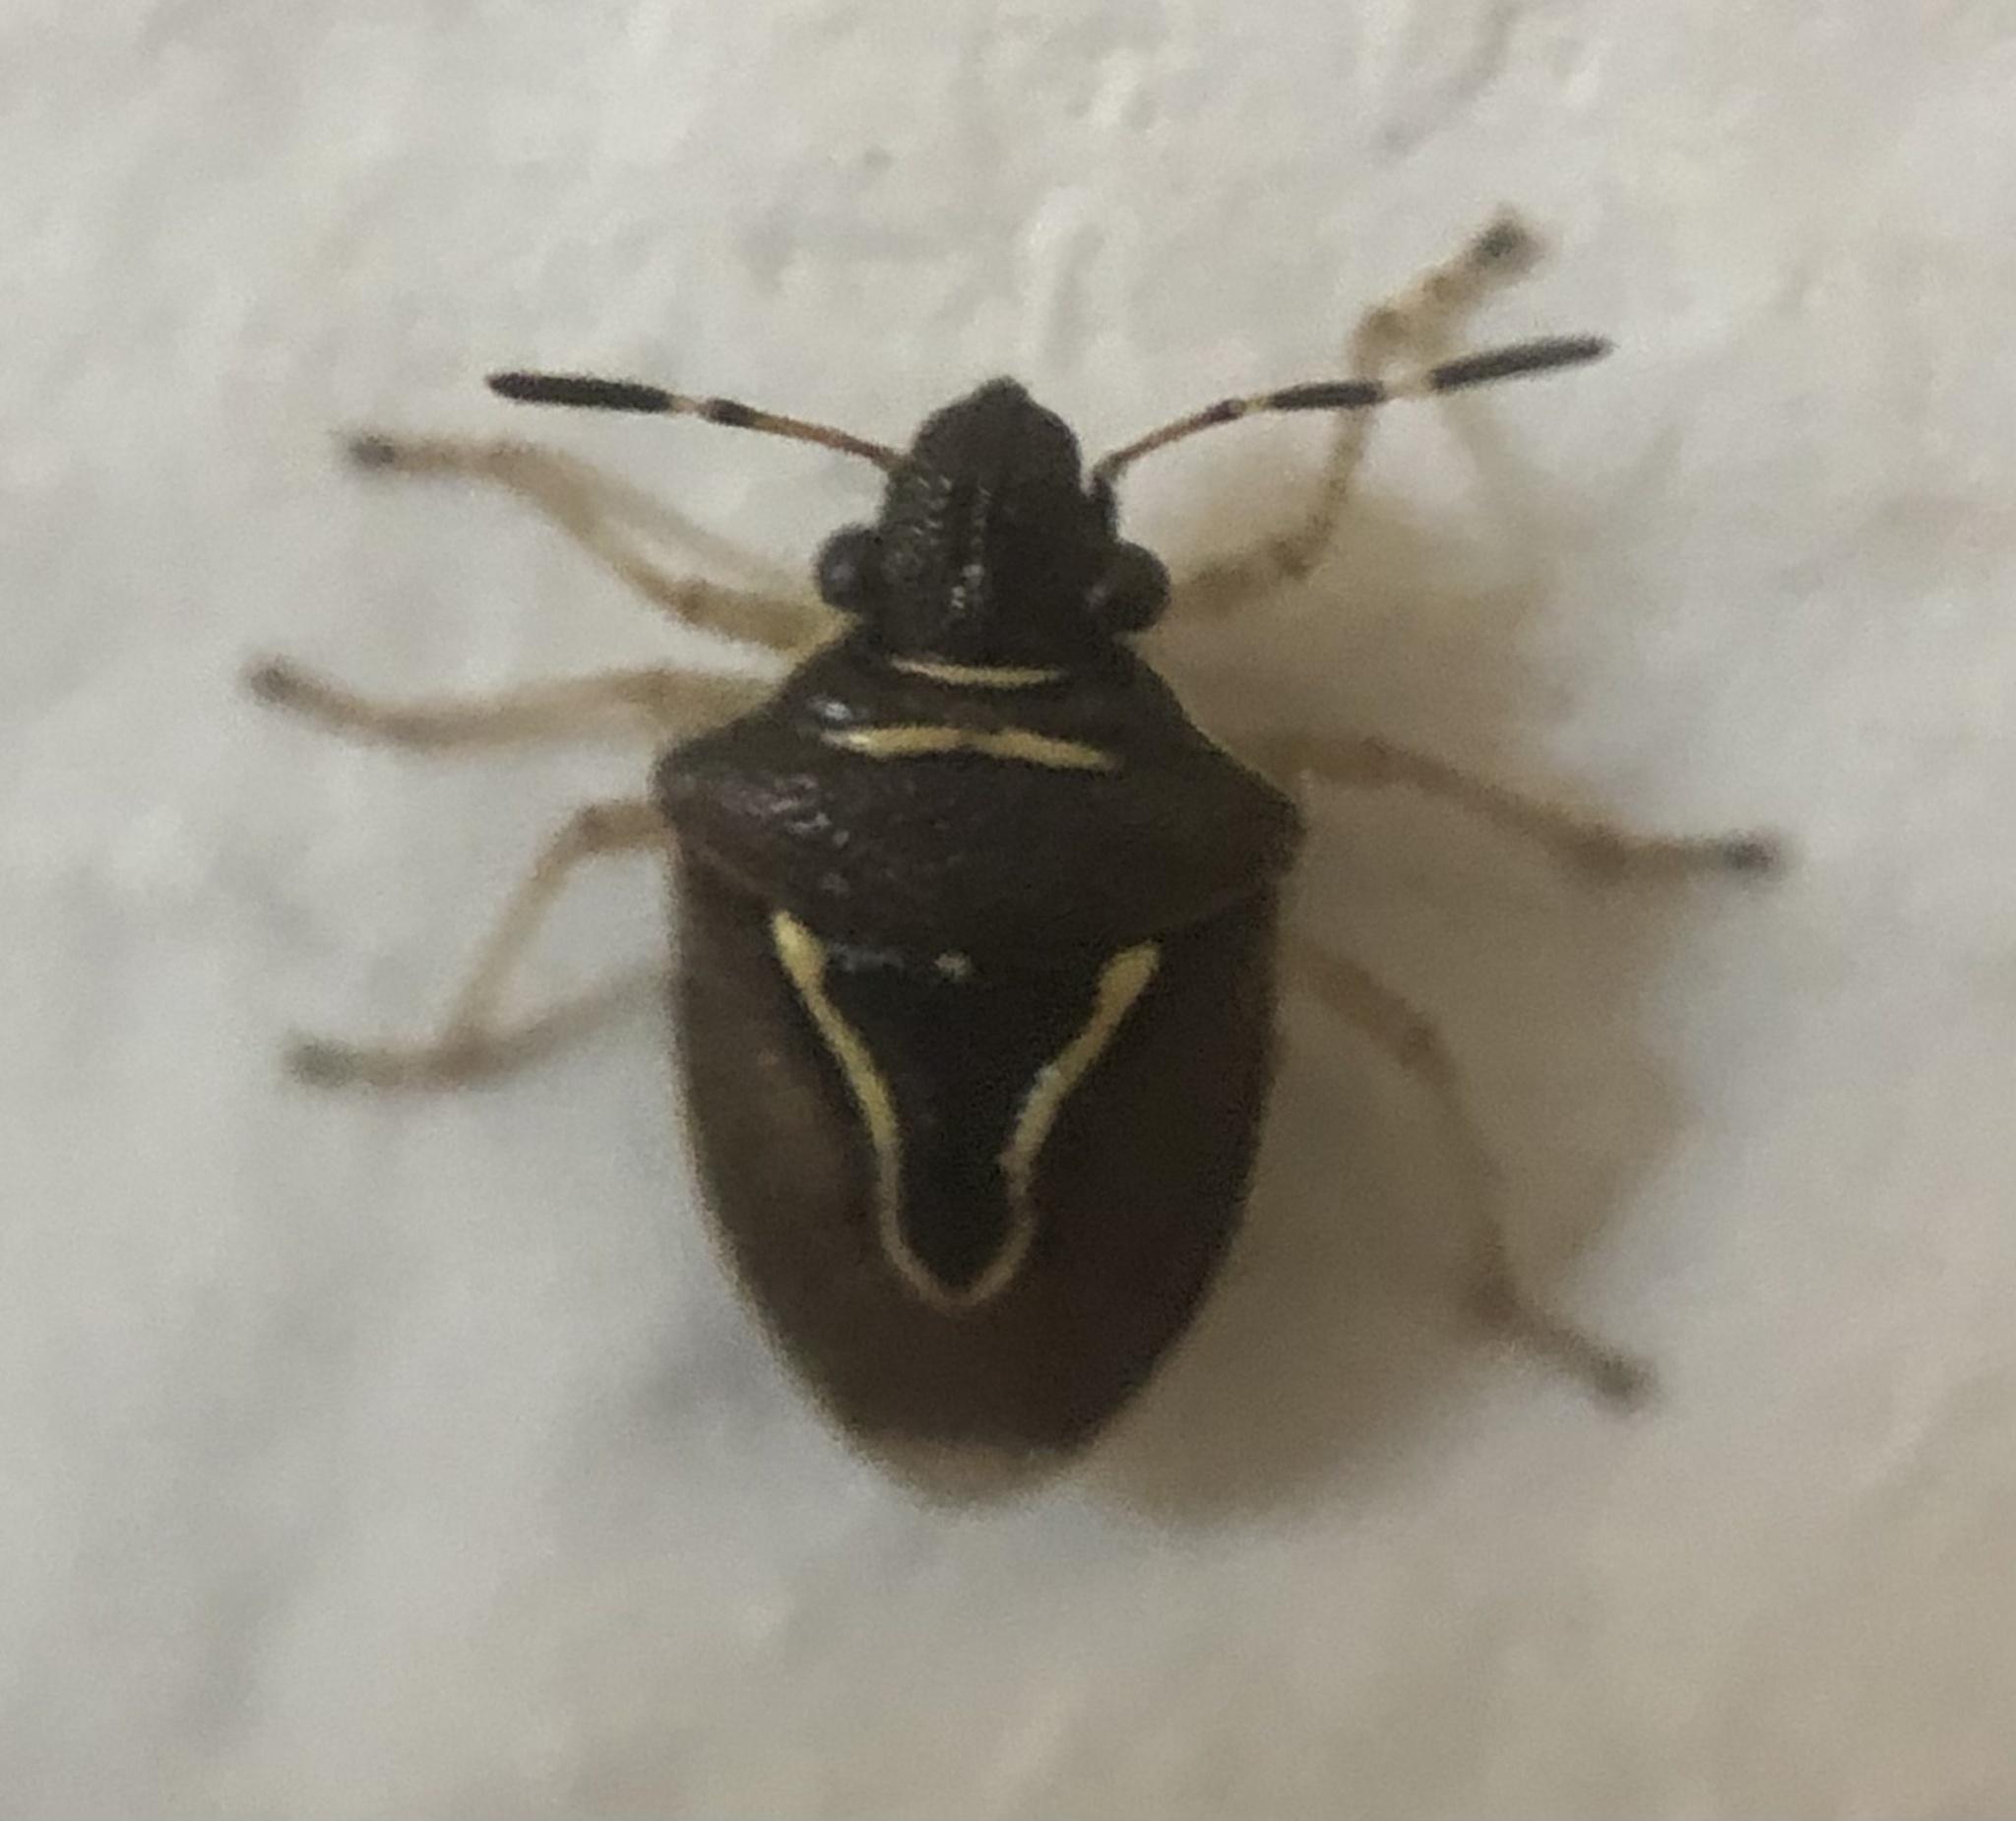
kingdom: Animalia
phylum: Arthropoda
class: Insecta
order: Hemiptera
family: Pentatomidae
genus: Mormidea
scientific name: Mormidea lugens
